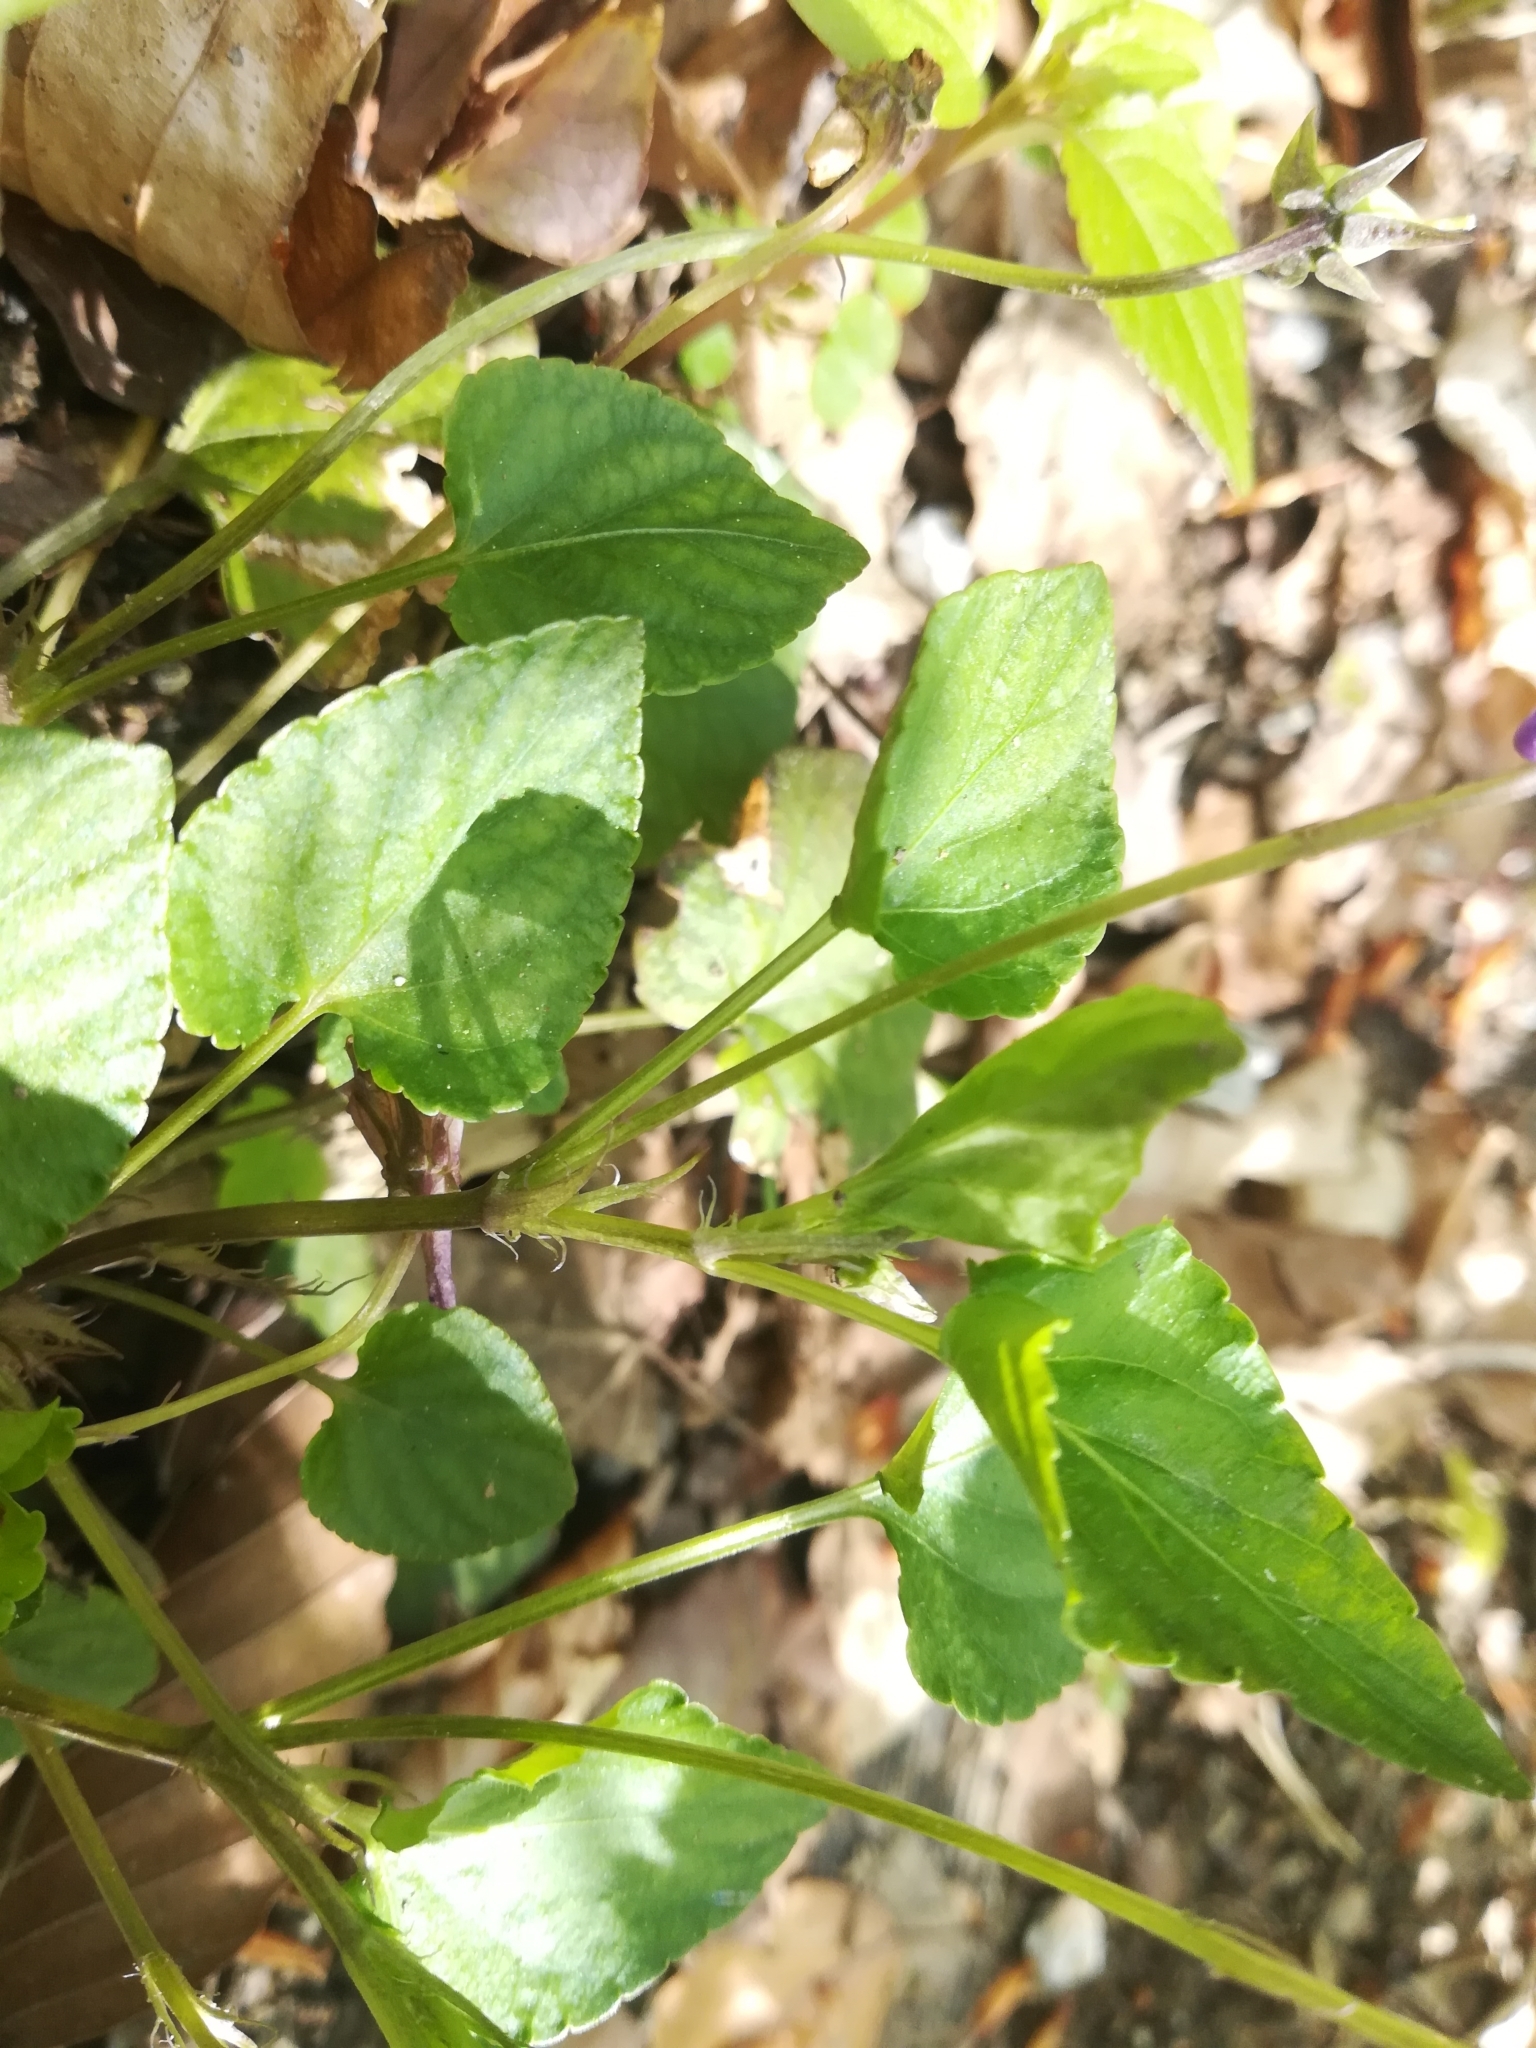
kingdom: Plantae
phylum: Tracheophyta
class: Magnoliopsida
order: Malpighiales
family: Violaceae
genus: Viola
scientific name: Viola reichenbachiana
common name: Early dog-violet
